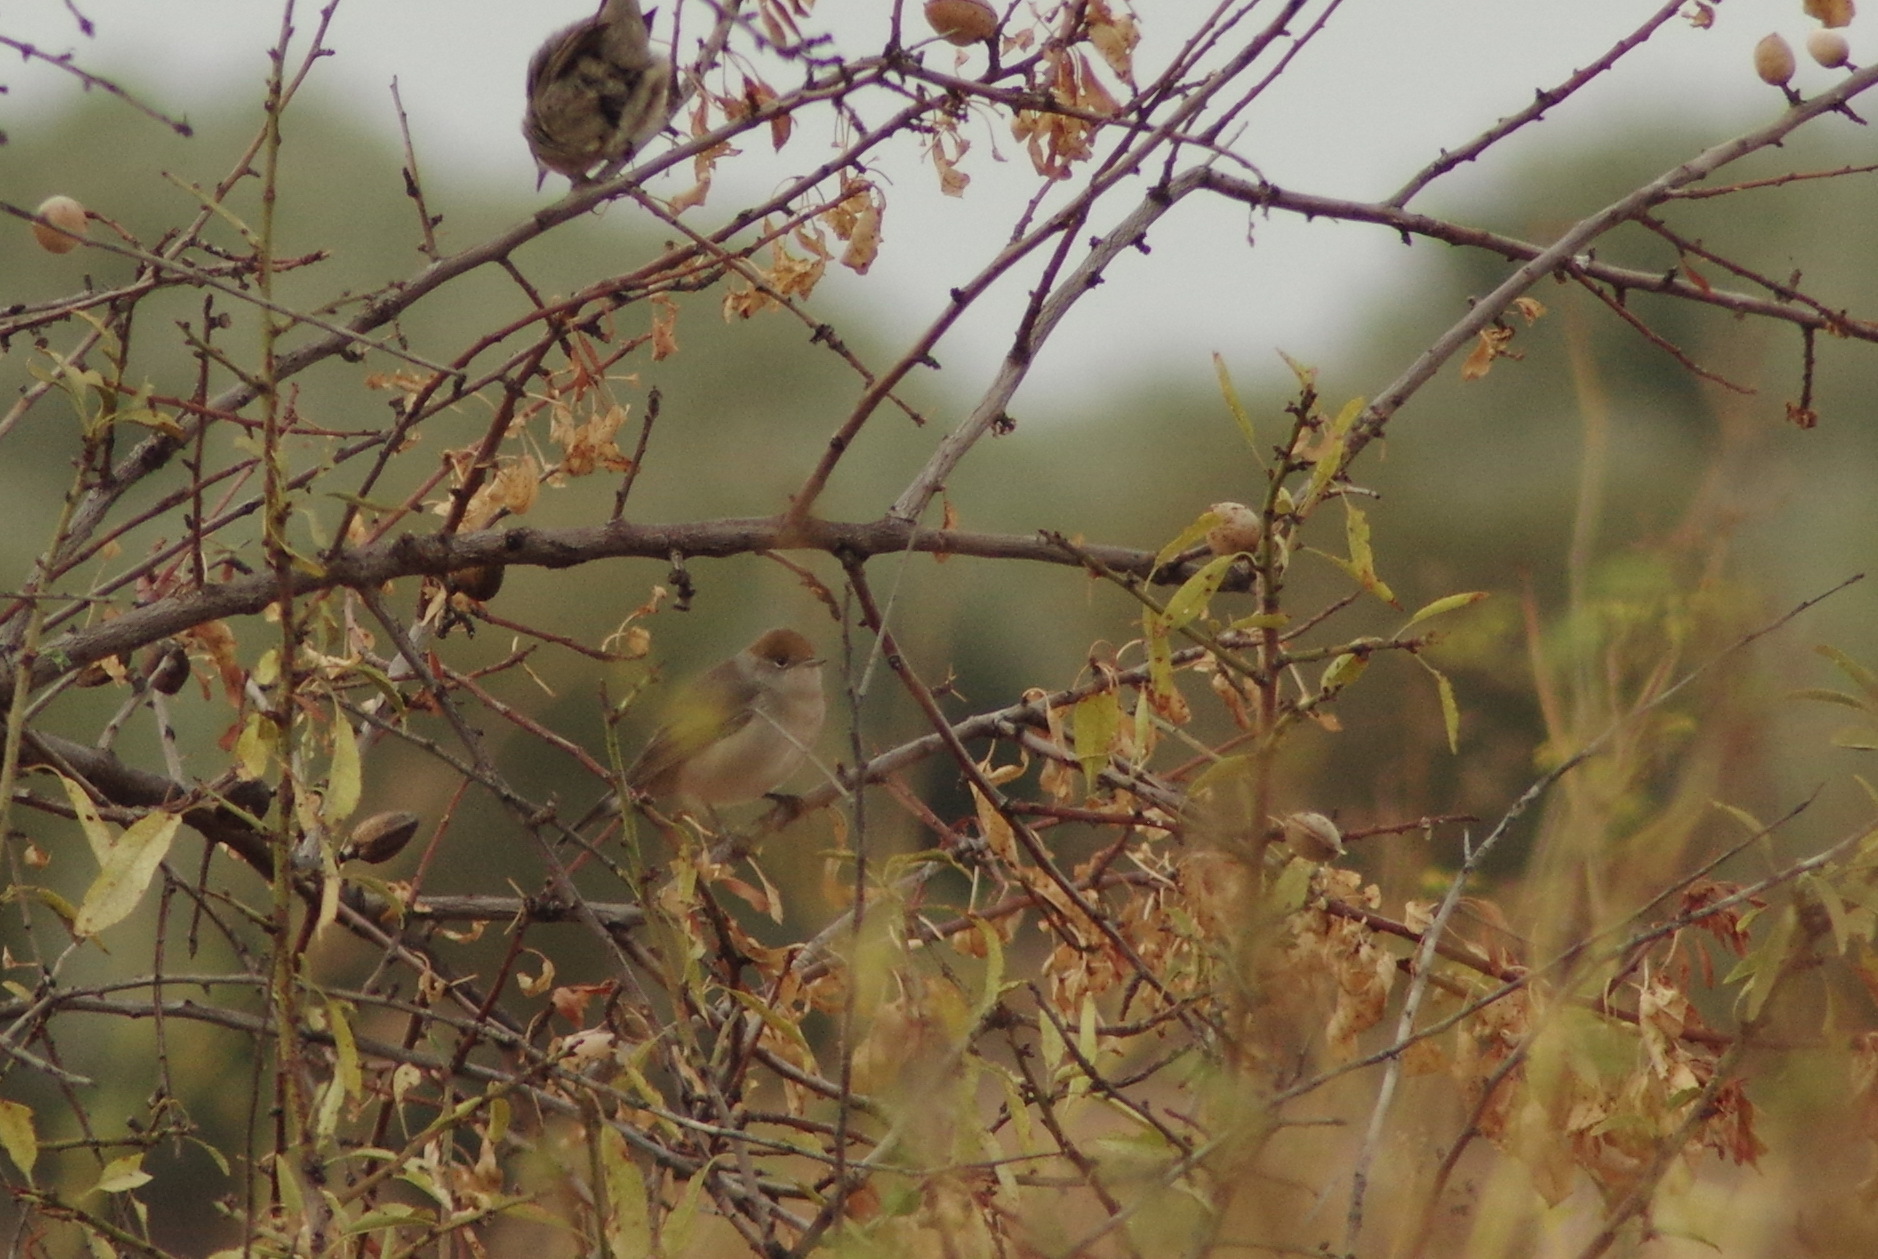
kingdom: Animalia
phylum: Chordata
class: Aves
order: Passeriformes
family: Sylviidae
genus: Sylvia
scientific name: Sylvia atricapilla
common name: Eurasian blackcap
